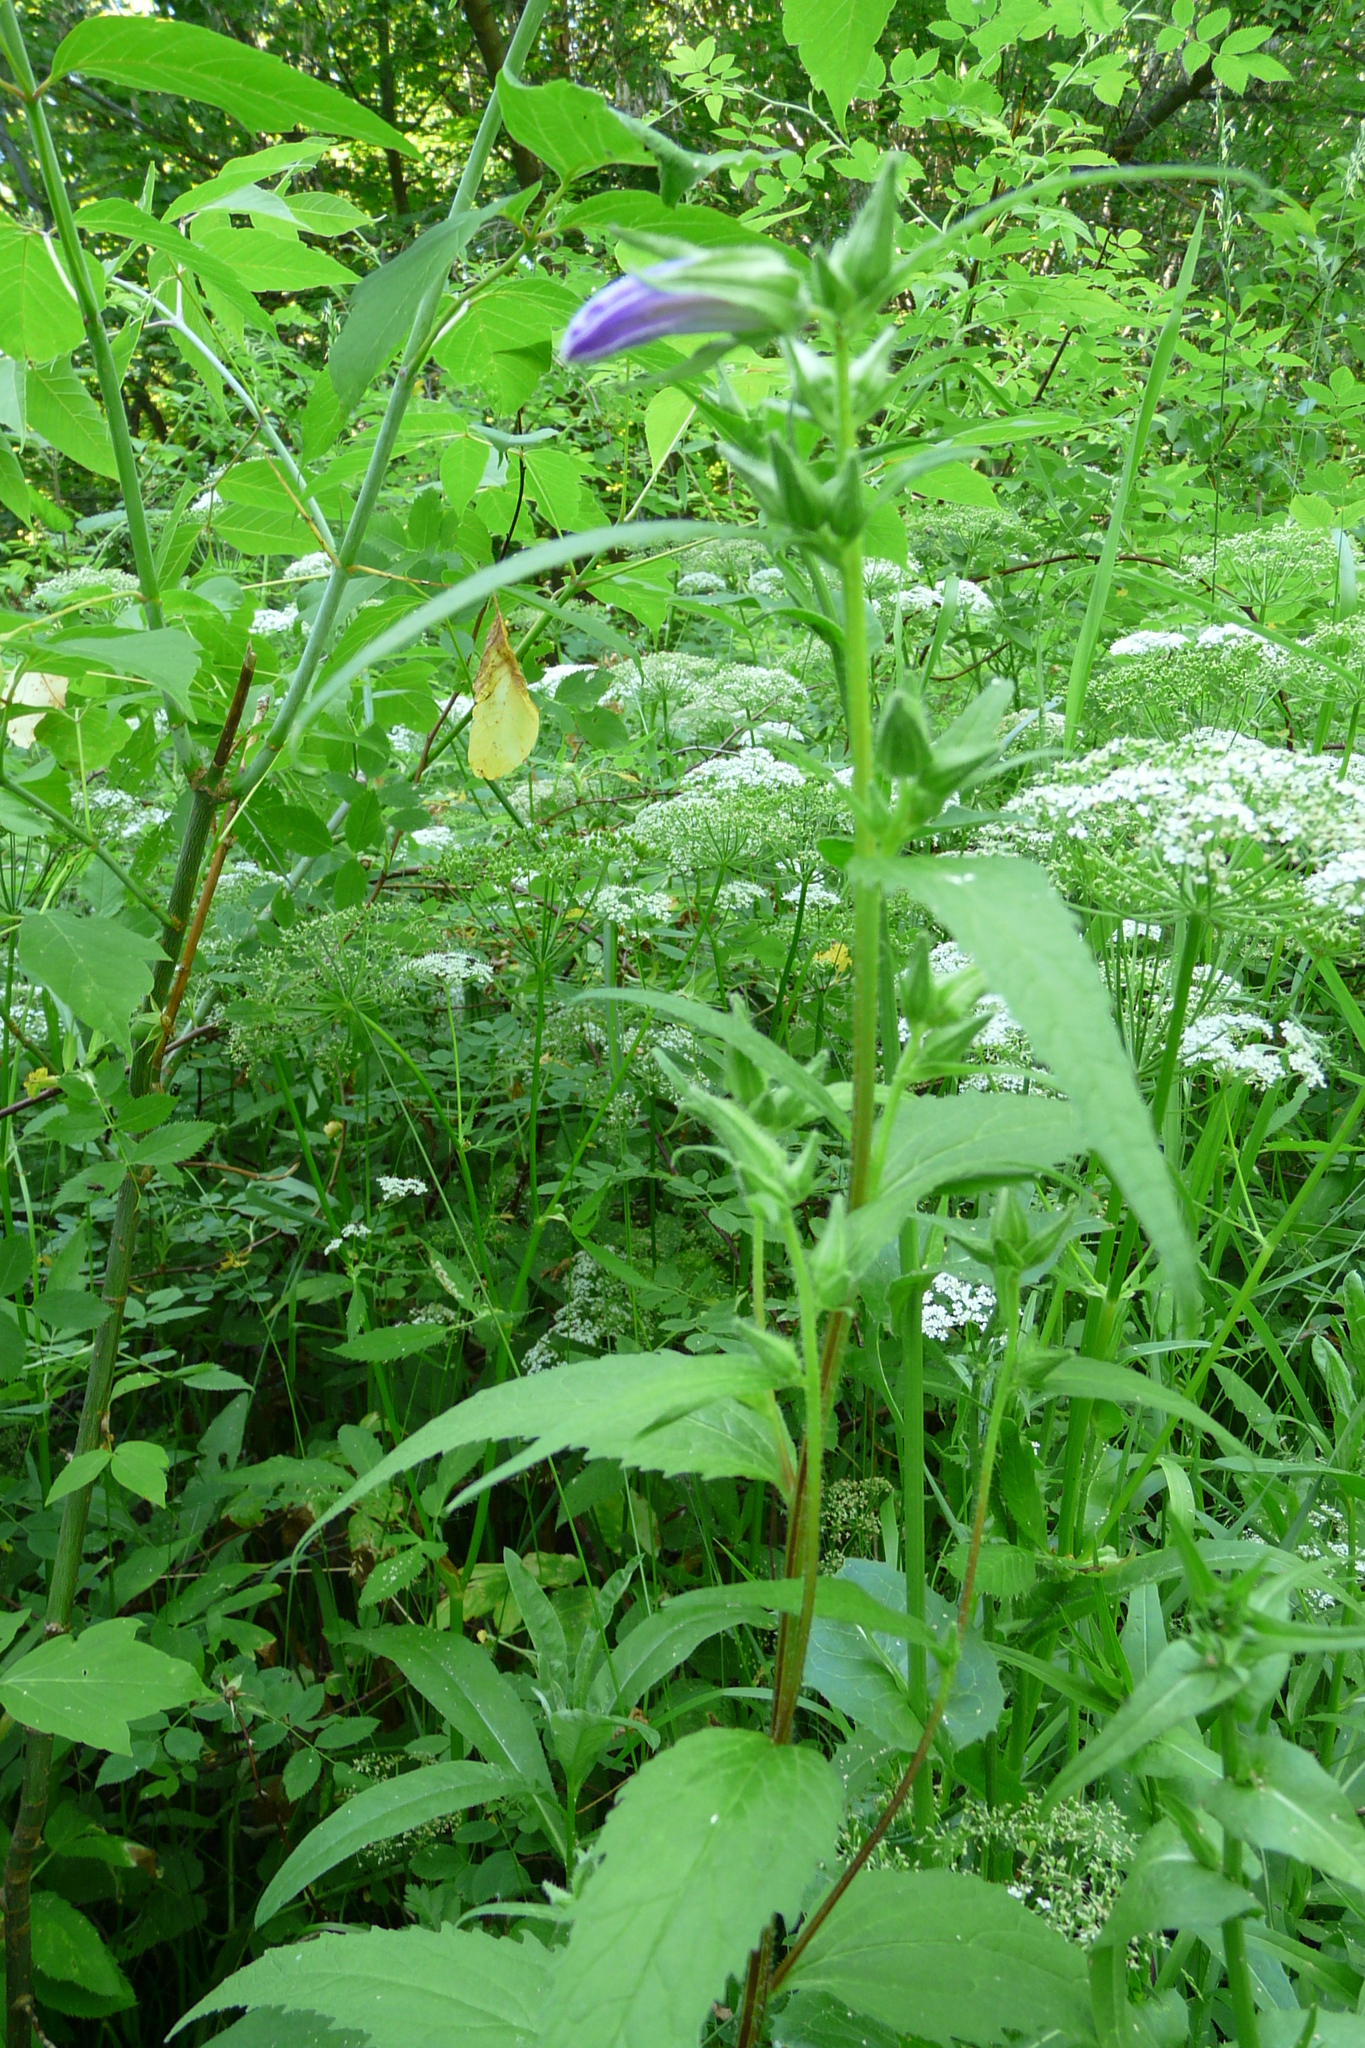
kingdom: Plantae
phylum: Tracheophyta
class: Magnoliopsida
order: Asterales
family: Campanulaceae
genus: Campanula
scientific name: Campanula trachelium
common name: Nettle-leaved bellflower
